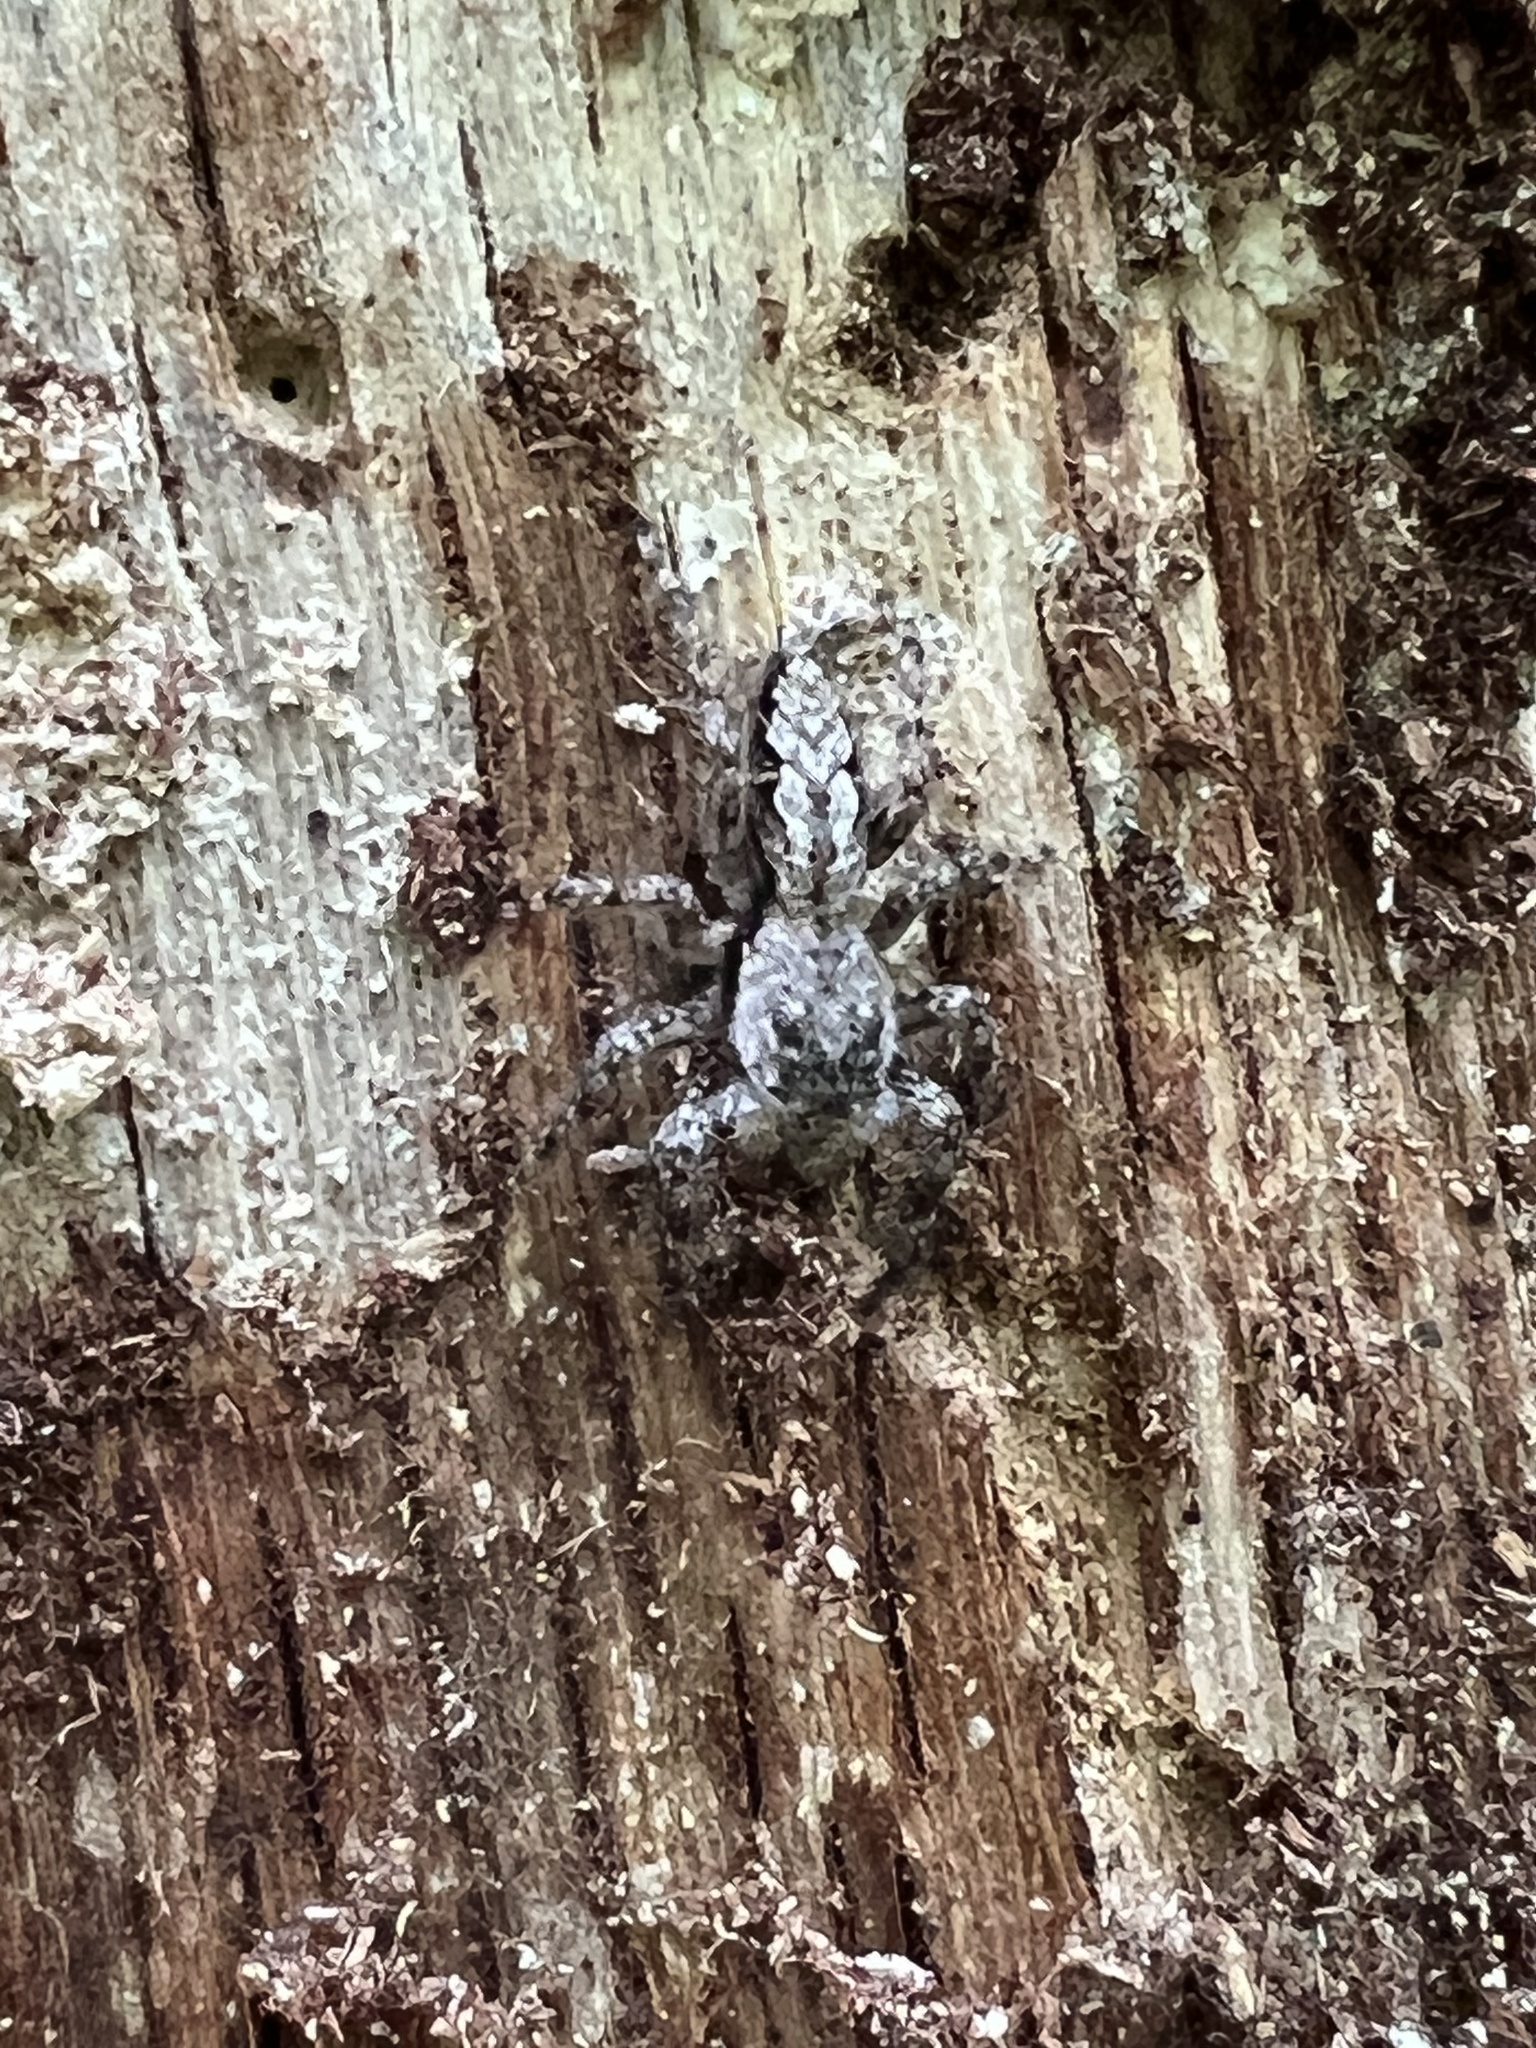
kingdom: Animalia
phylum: Arthropoda
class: Arachnida
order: Araneae
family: Salticidae
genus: Platycryptus
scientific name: Platycryptus undatus
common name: Tan jumping spider
